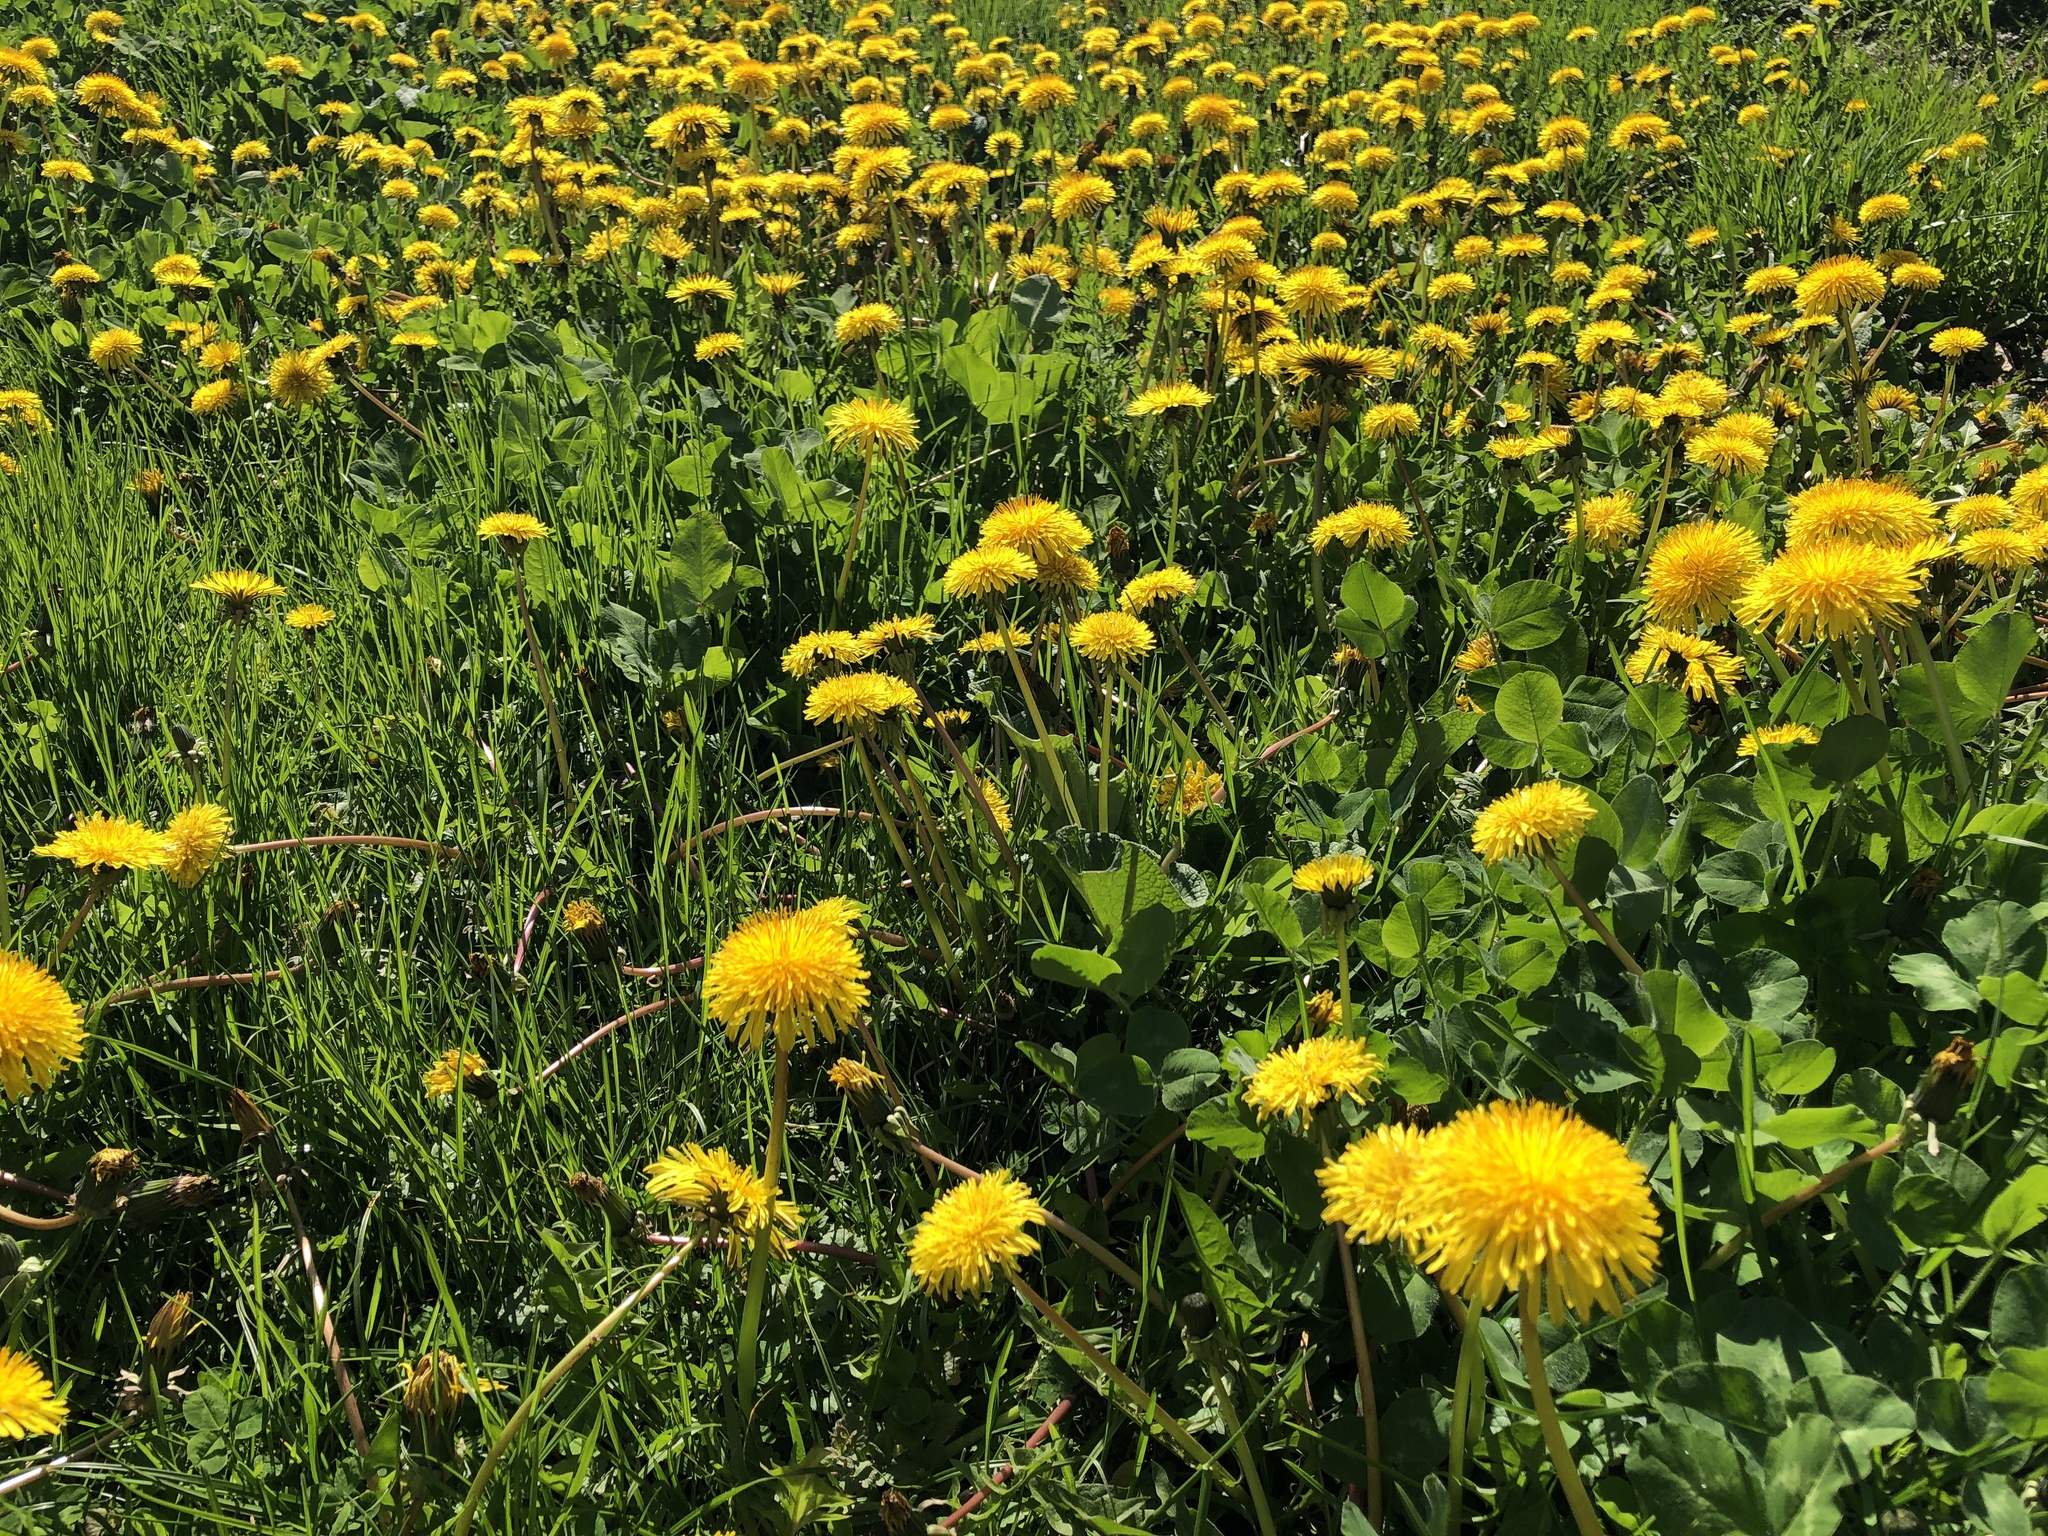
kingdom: Plantae
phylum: Tracheophyta
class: Magnoliopsida
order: Asterales
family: Asteraceae
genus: Taraxacum
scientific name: Taraxacum officinale
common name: Common dandelion
